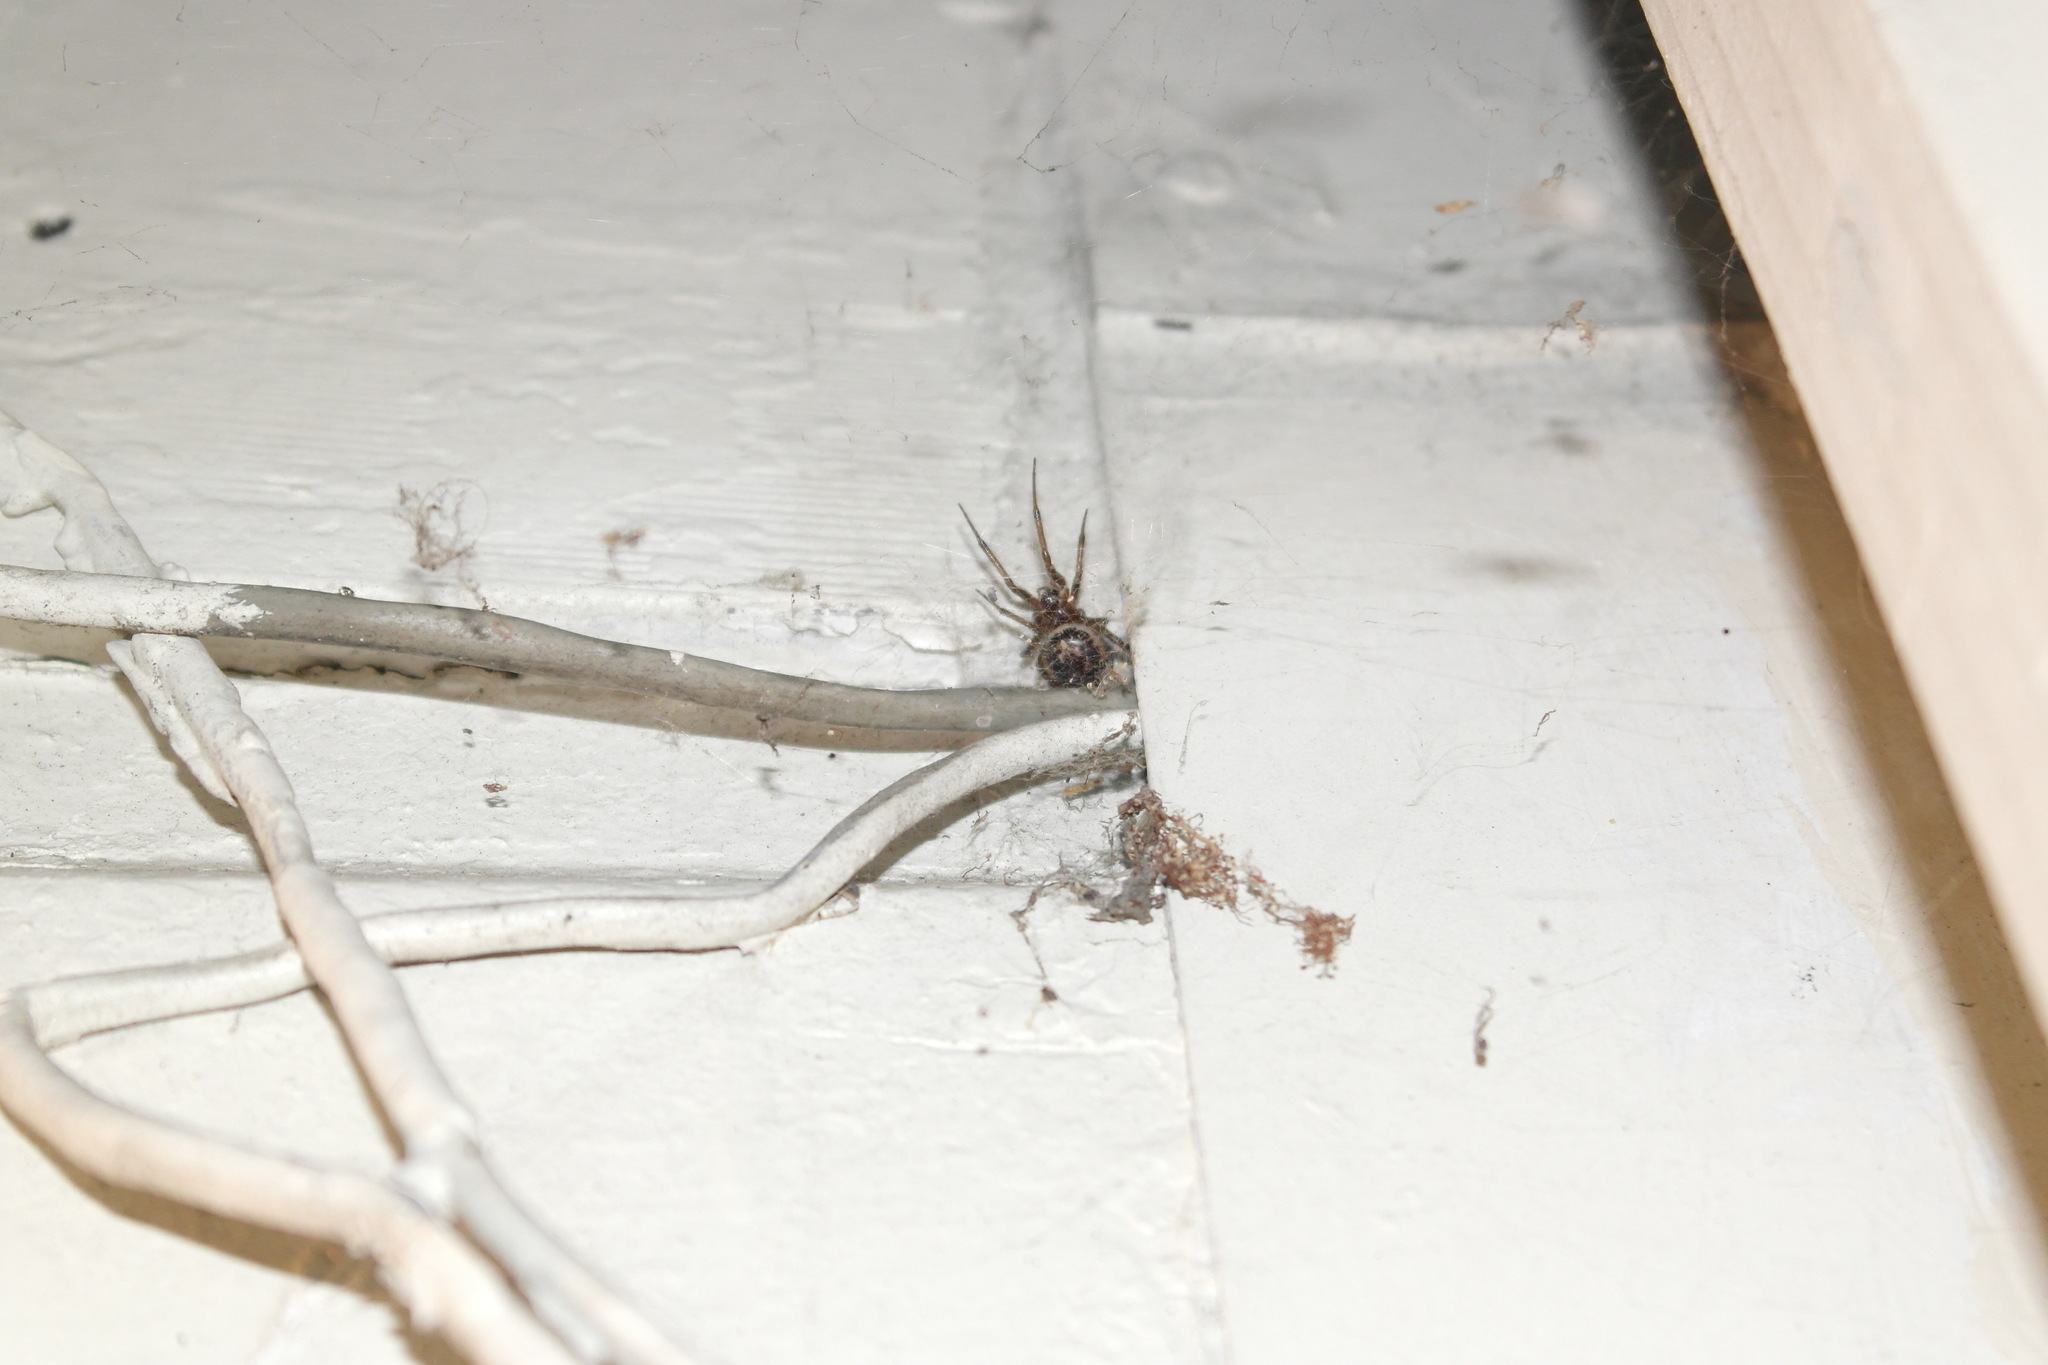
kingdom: Animalia
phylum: Arthropoda
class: Arachnida
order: Araneae
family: Theridiidae
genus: Steatoda
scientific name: Steatoda nobilis
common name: Cobweb weaver
